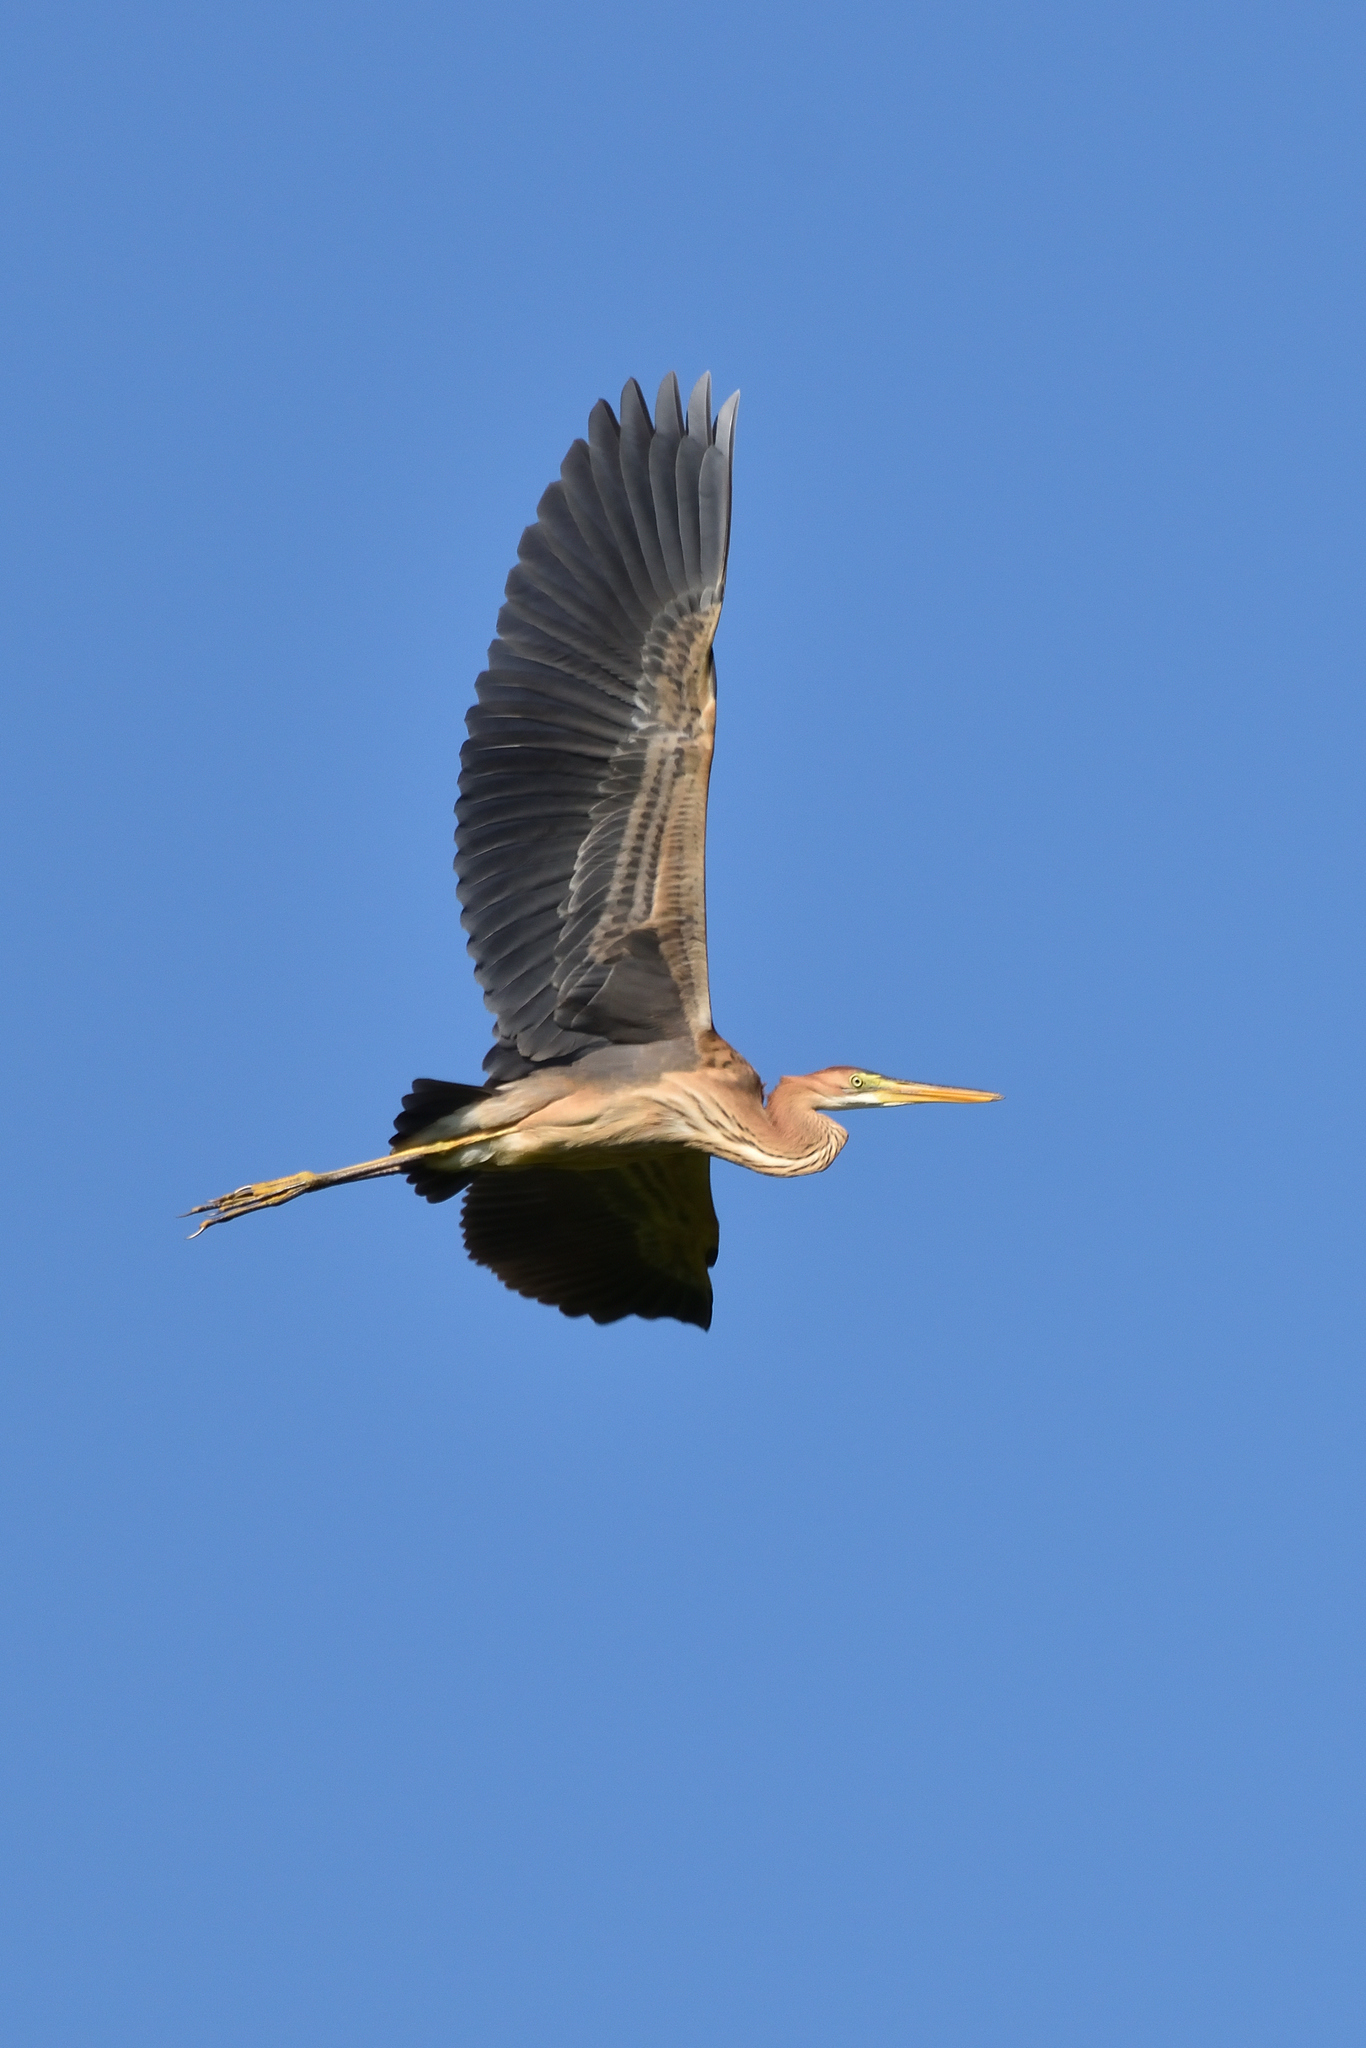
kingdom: Animalia
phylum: Chordata
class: Aves
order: Pelecaniformes
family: Ardeidae
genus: Ardea
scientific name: Ardea purpurea
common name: Purple heron
